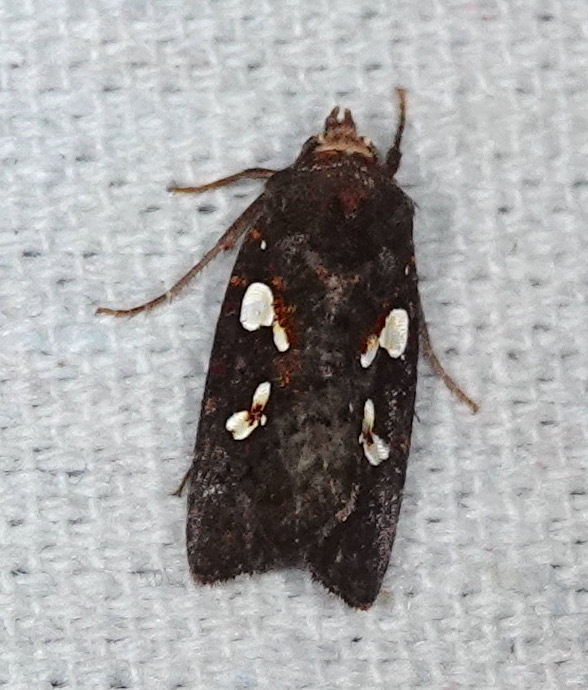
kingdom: Animalia
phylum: Arthropoda
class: Insecta
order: Lepidoptera
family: Noctuidae
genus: Calymniodes
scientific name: Calymniodes pyrostrota
